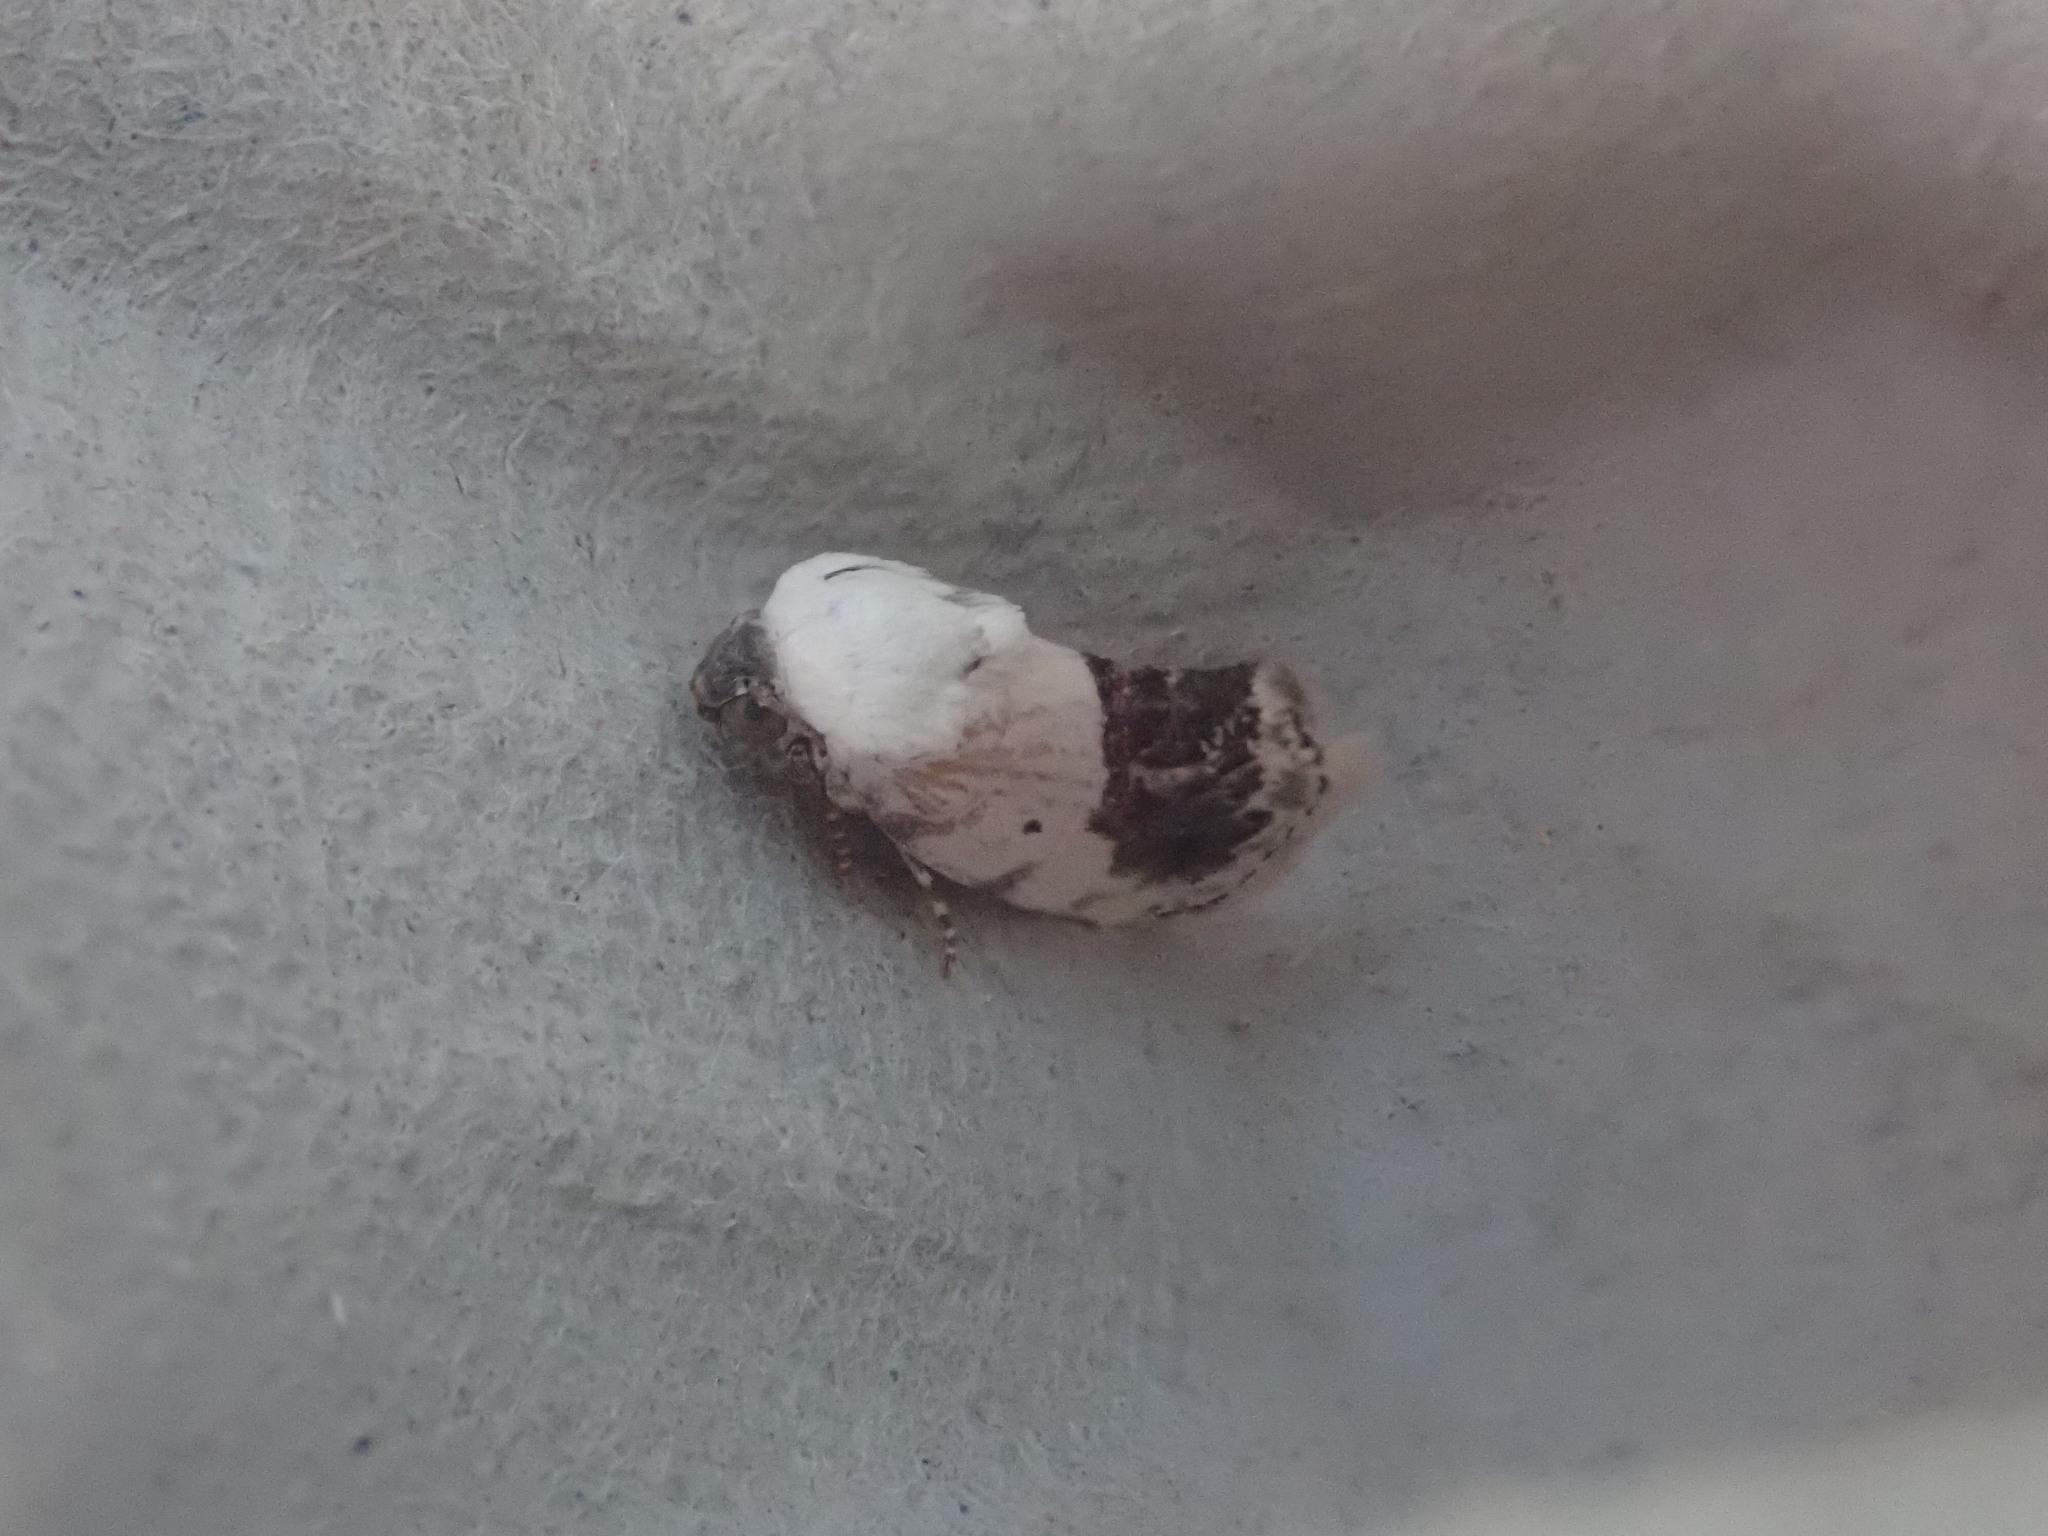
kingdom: Animalia
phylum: Arthropoda
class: Insecta
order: Lepidoptera
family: Noctuidae
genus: Acontia
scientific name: Acontia erastrioides
